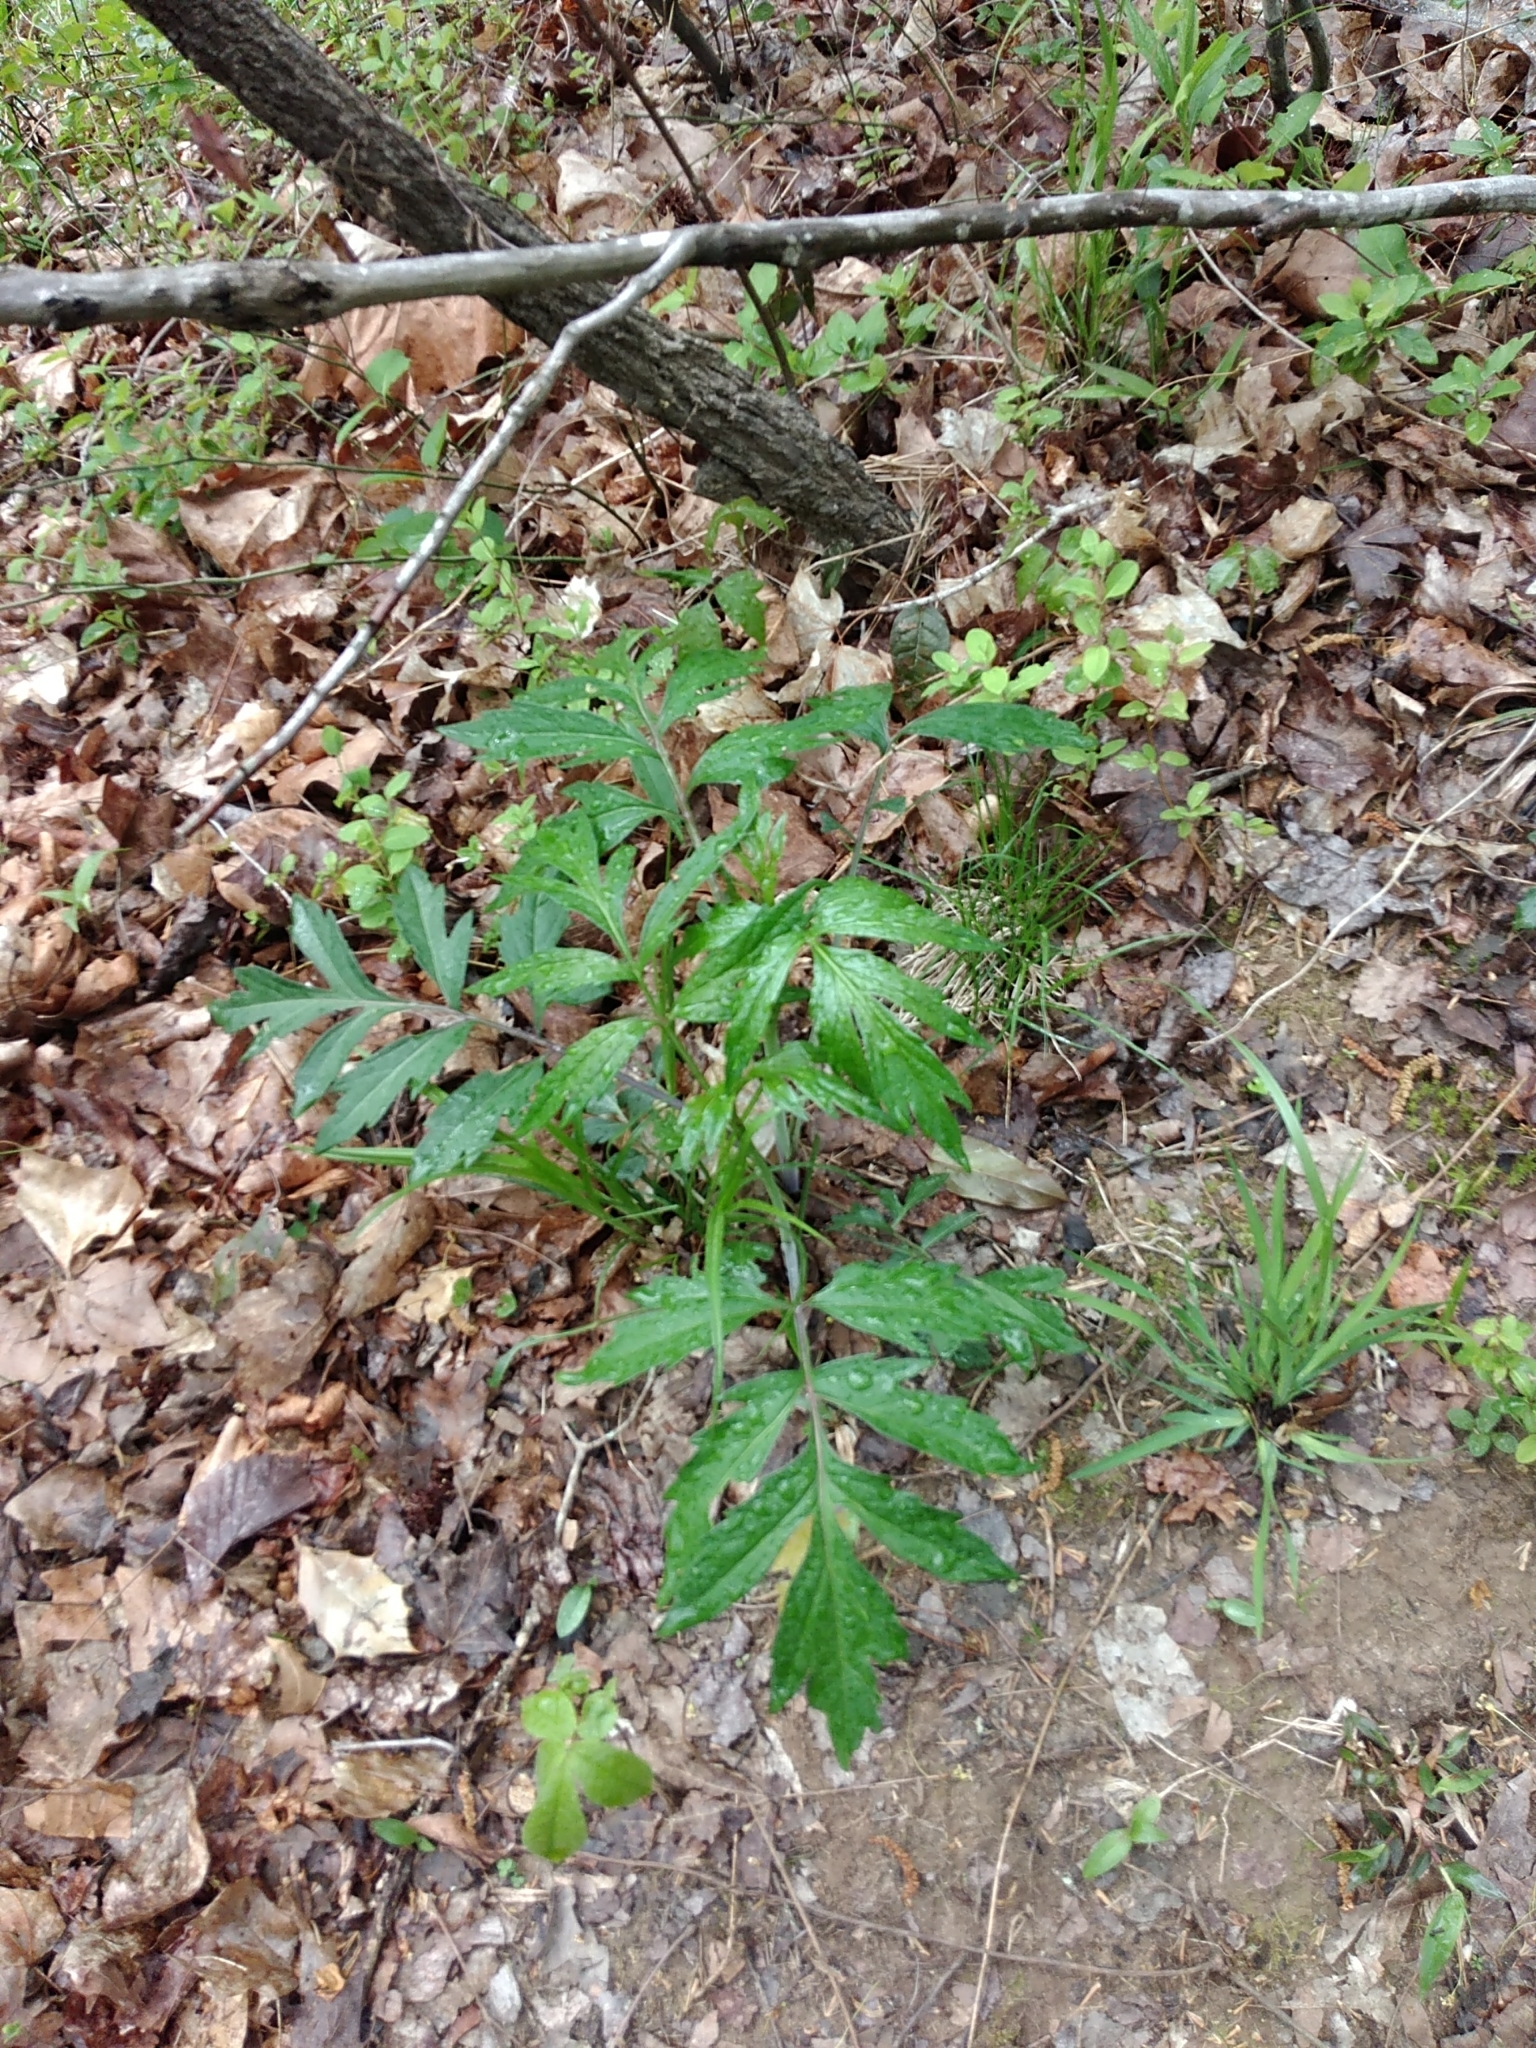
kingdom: Plantae
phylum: Tracheophyta
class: Magnoliopsida
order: Asterales
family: Asteraceae
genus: Rudbeckia
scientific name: Rudbeckia laciniata
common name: Coneflower
